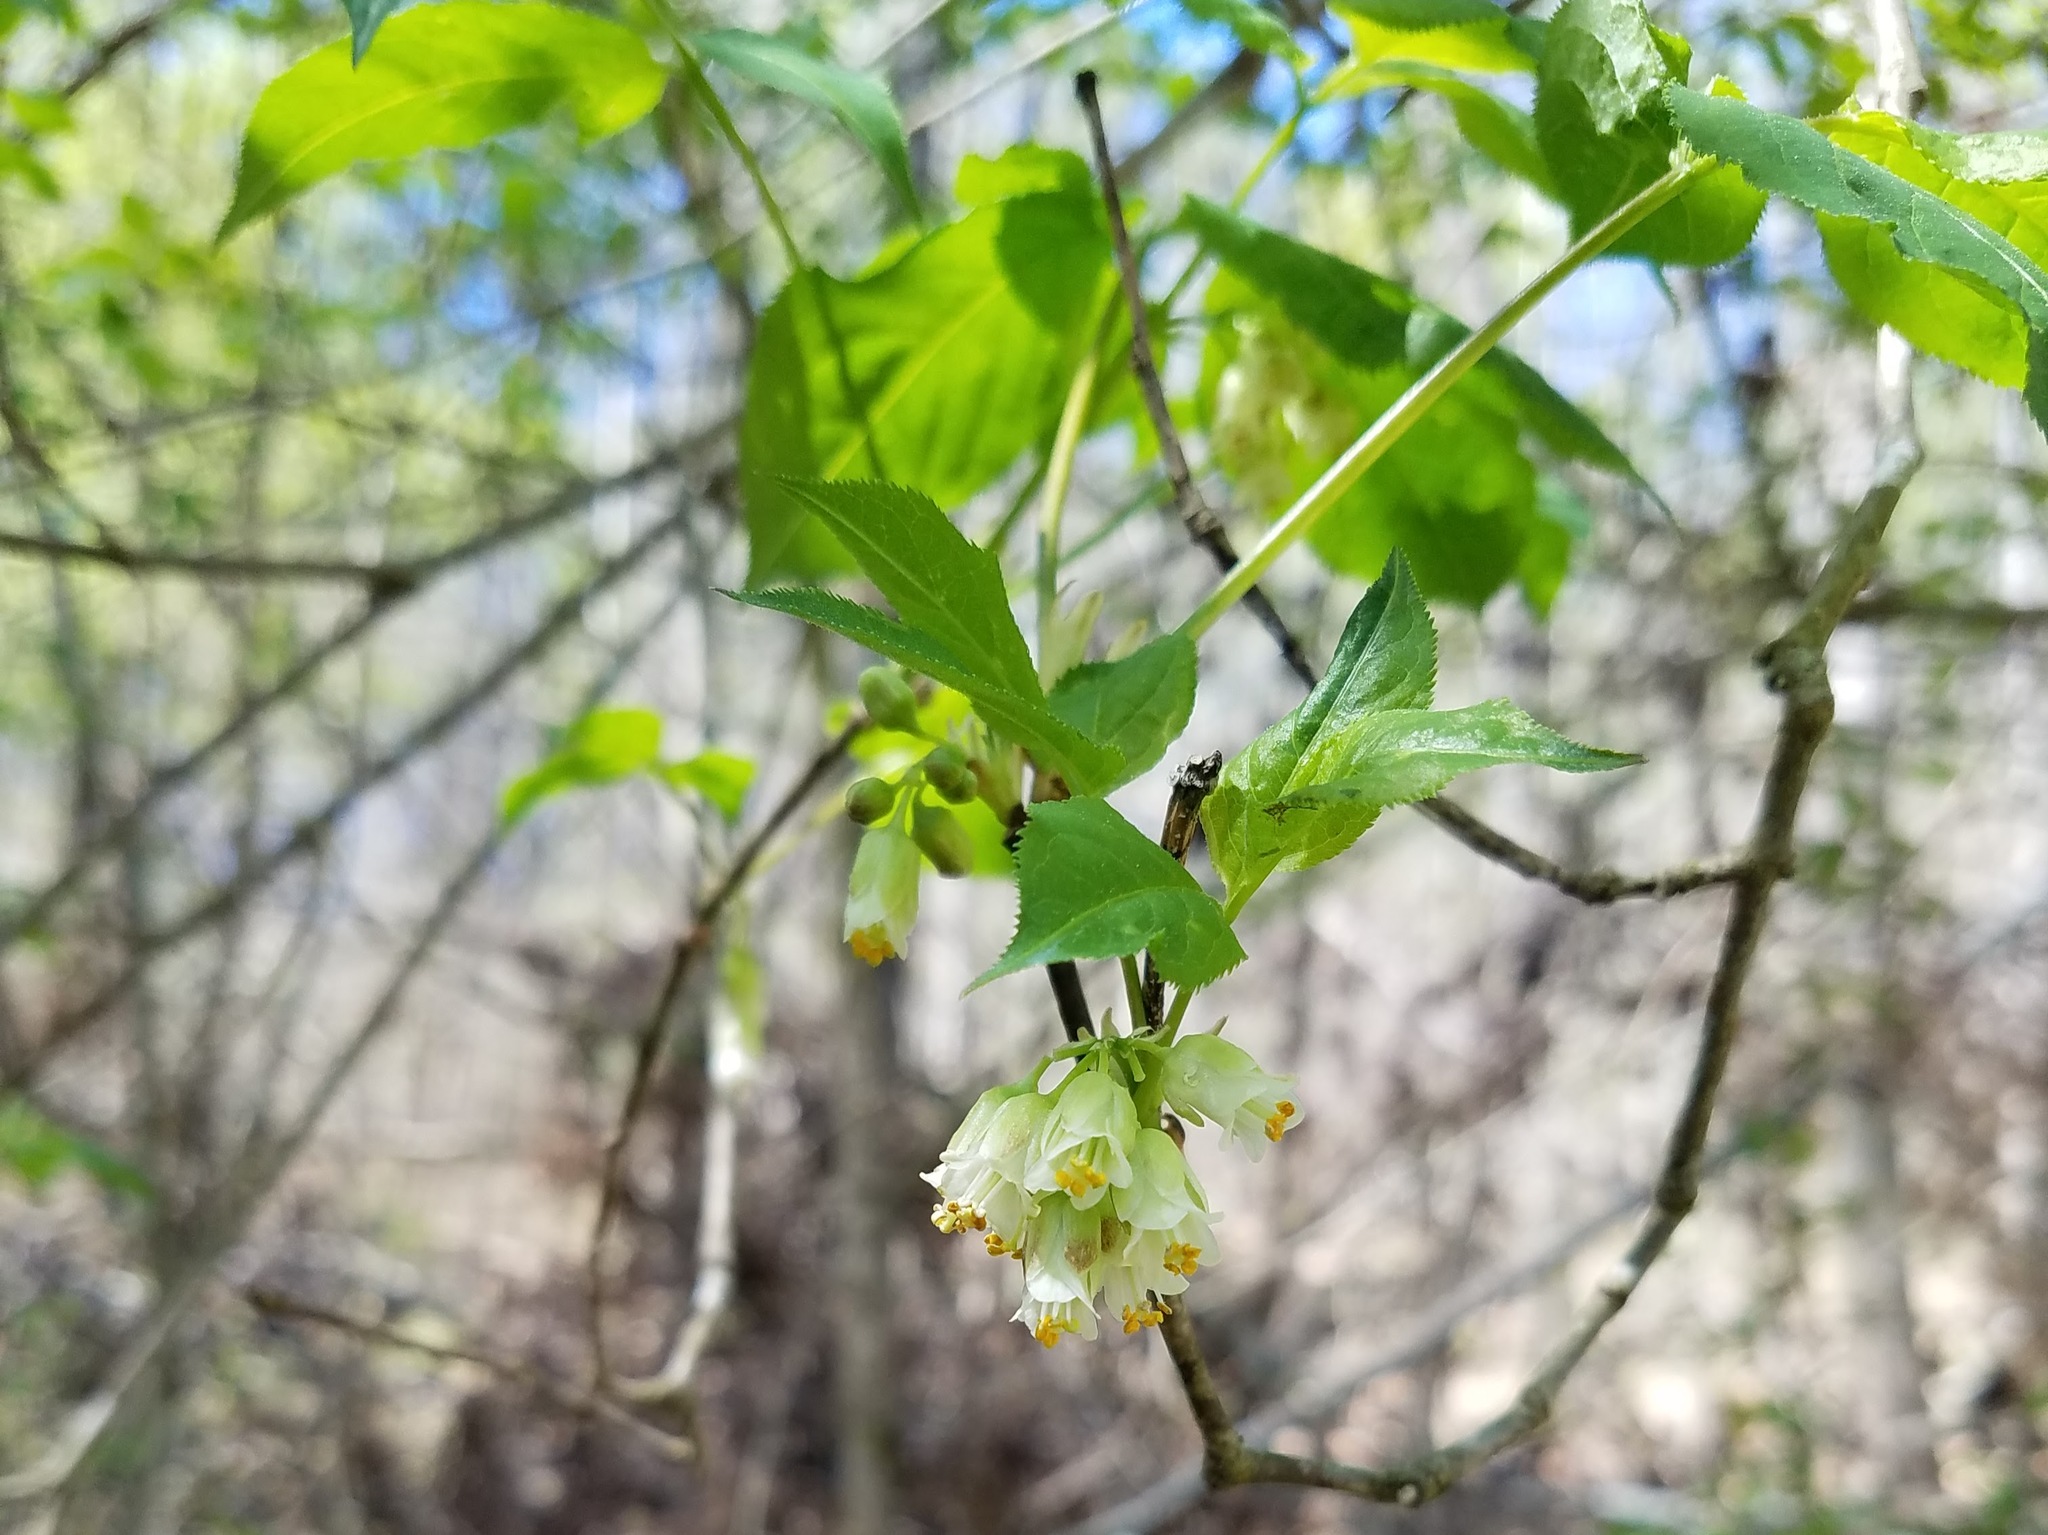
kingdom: Plantae
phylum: Tracheophyta
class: Magnoliopsida
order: Crossosomatales
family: Staphyleaceae
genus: Staphylea
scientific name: Staphylea trifolia
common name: American bladdernut
